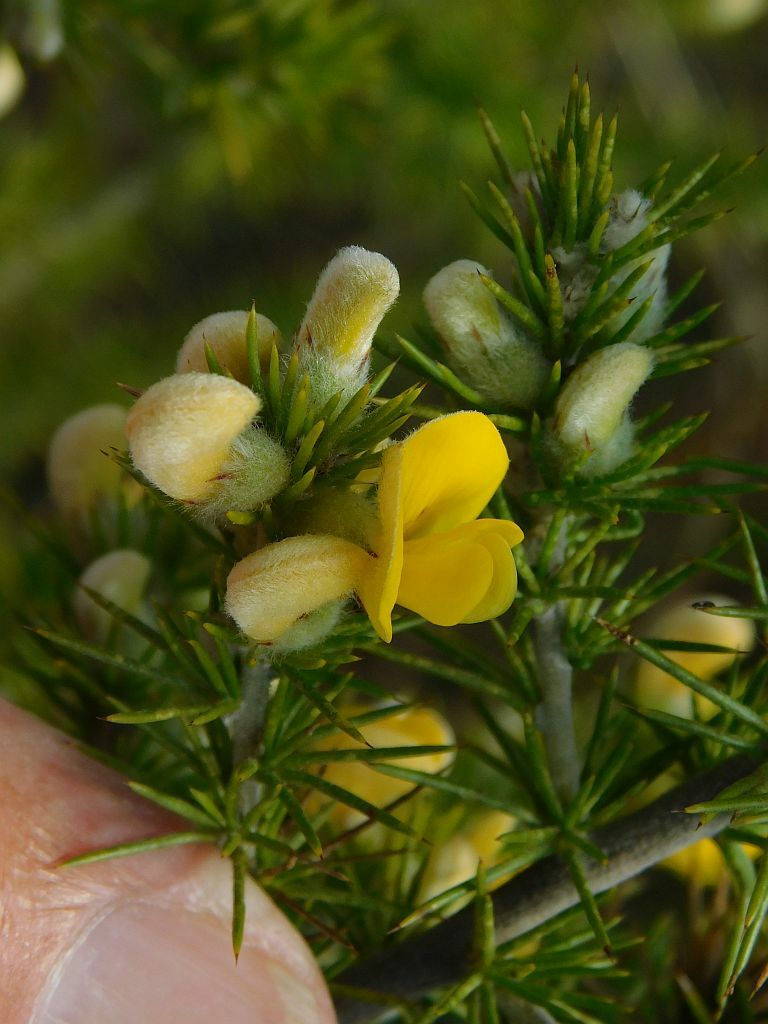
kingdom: Plantae
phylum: Tracheophyta
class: Magnoliopsida
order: Fabales
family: Fabaceae
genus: Aspalathus
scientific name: Aspalathus hirta
